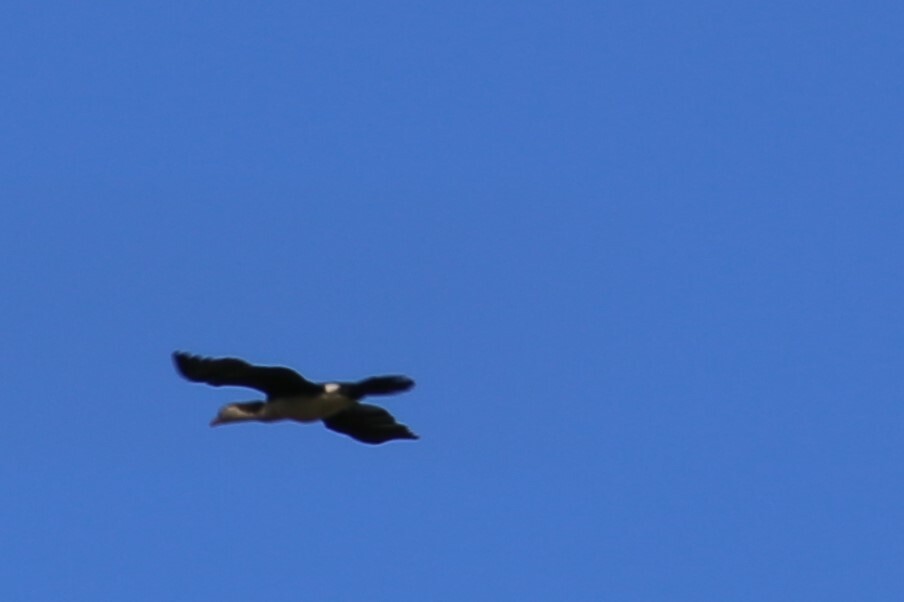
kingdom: Animalia
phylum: Chordata
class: Aves
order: Suliformes
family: Phalacrocoracidae
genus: Microcarbo
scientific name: Microcarbo melanoleucos
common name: Little pied cormorant
